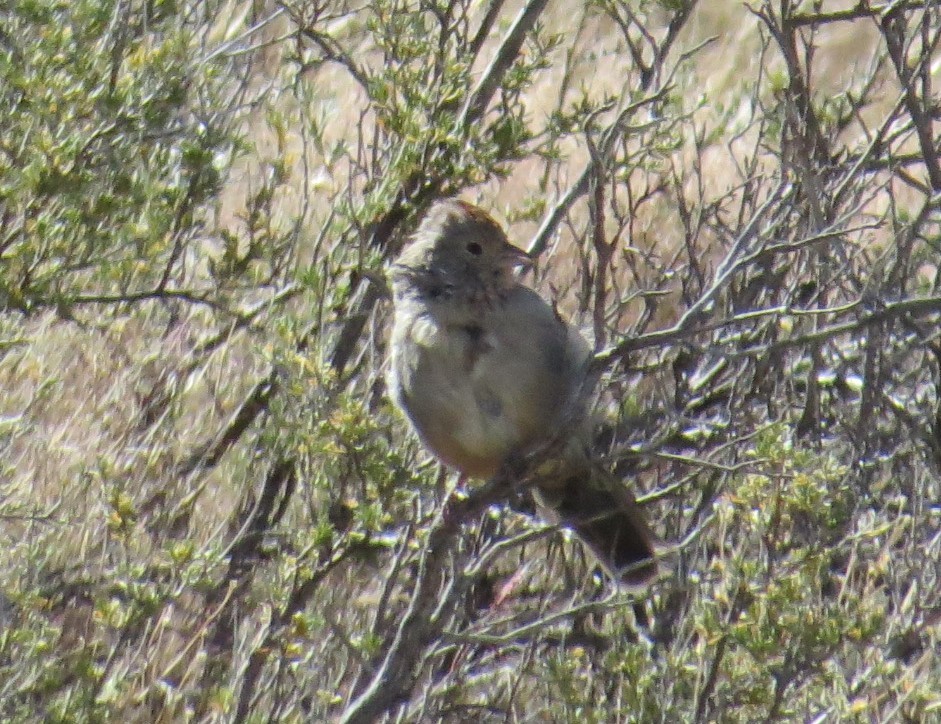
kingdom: Animalia
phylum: Chordata
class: Aves
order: Passeriformes
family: Passerellidae
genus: Melozone
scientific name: Melozone fusca
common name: Canyon towhee
